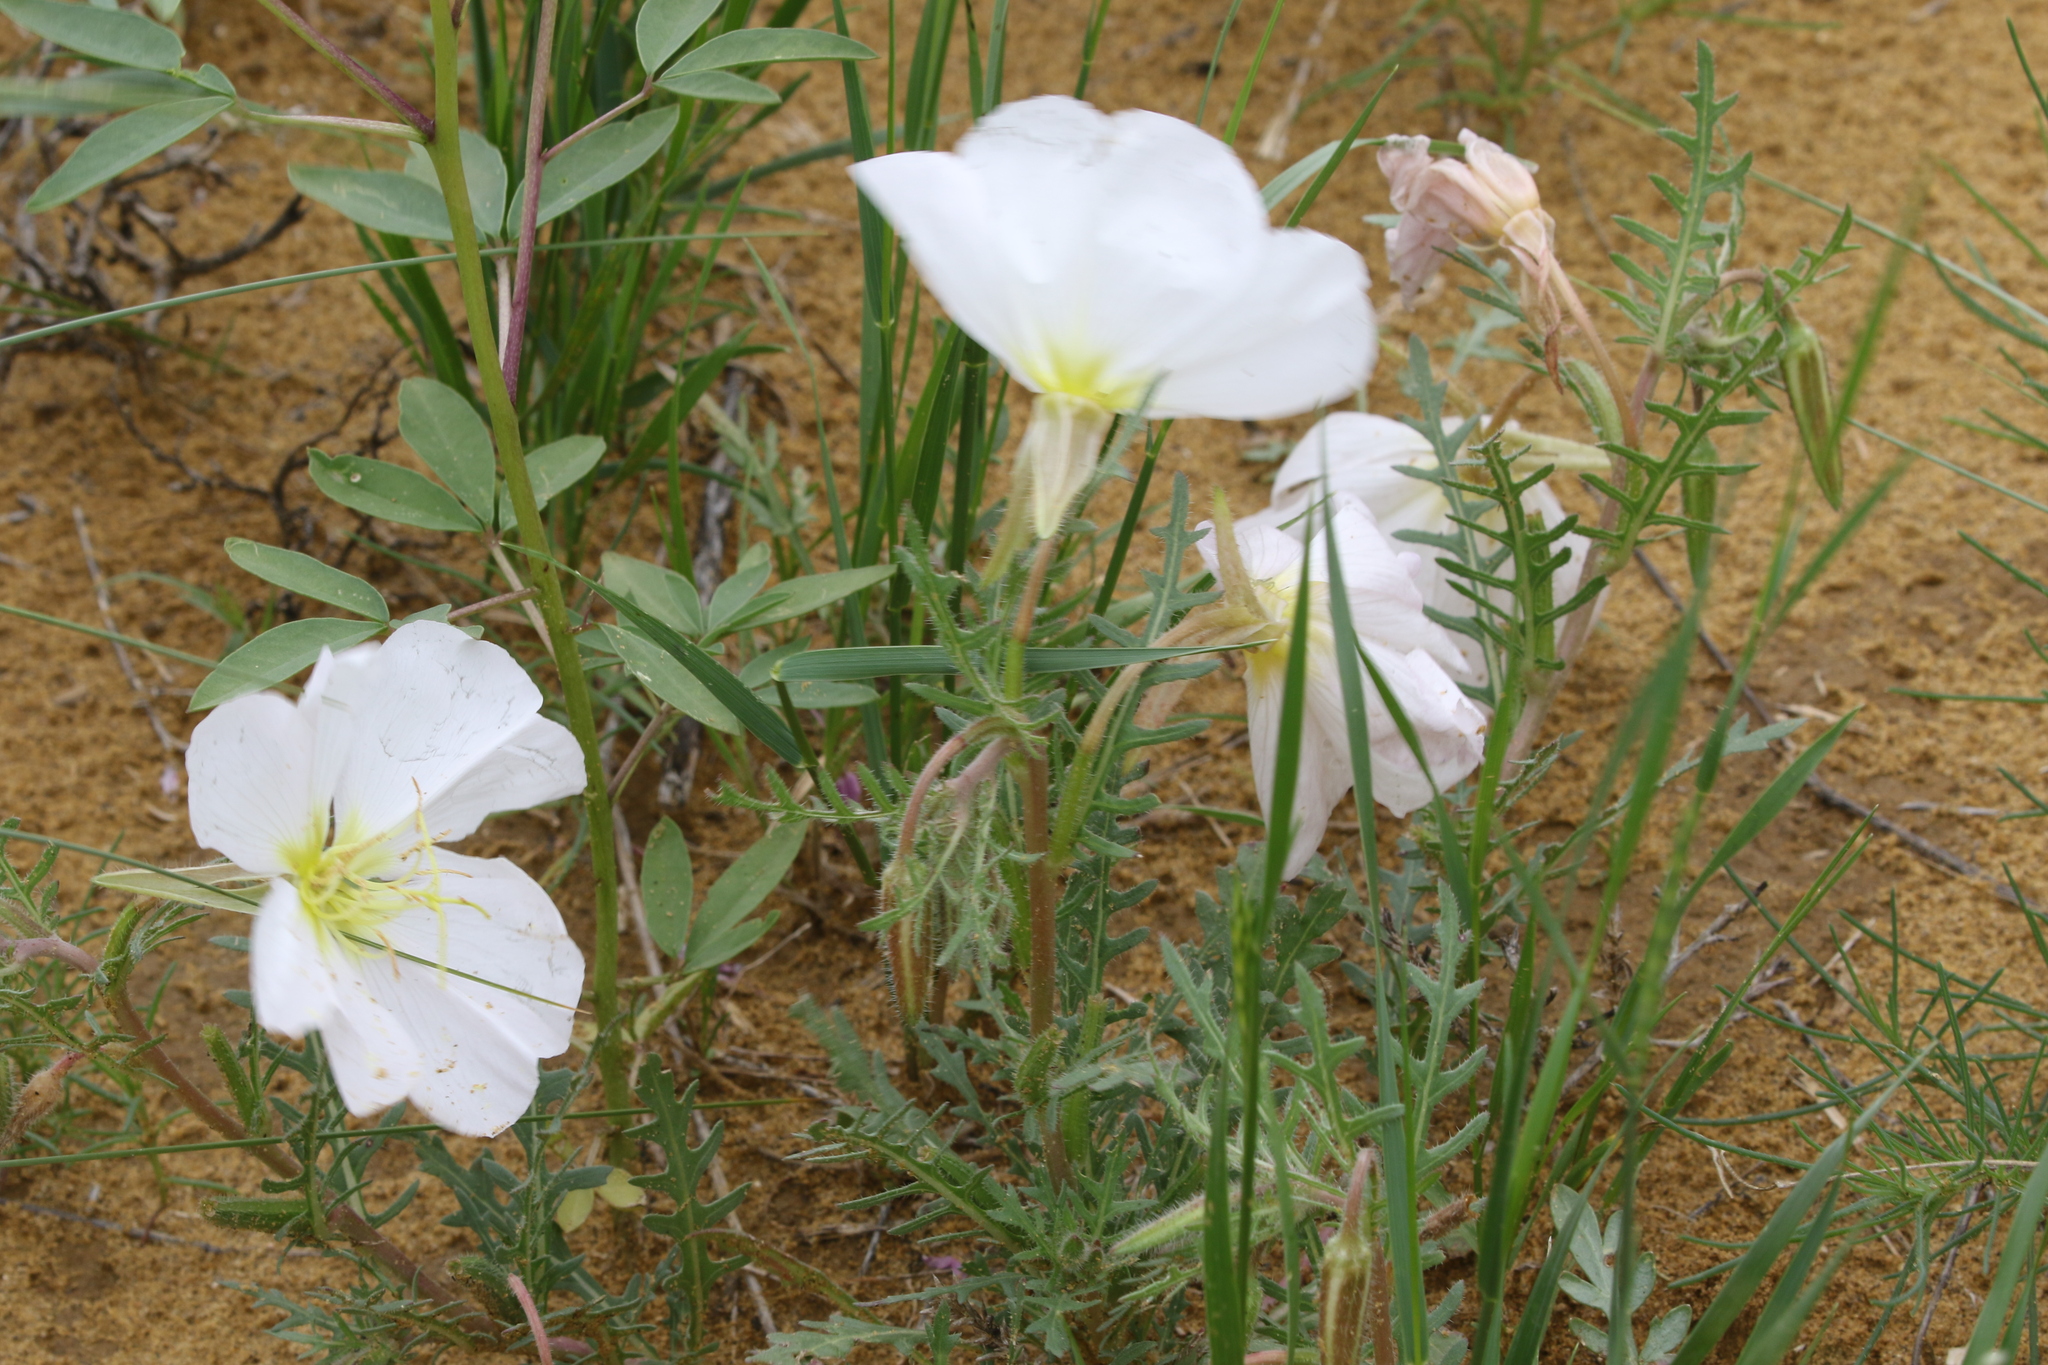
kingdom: Plantae
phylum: Tracheophyta
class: Magnoliopsida
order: Myrtales
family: Onagraceae
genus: Oenothera
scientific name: Oenothera albicaulis
